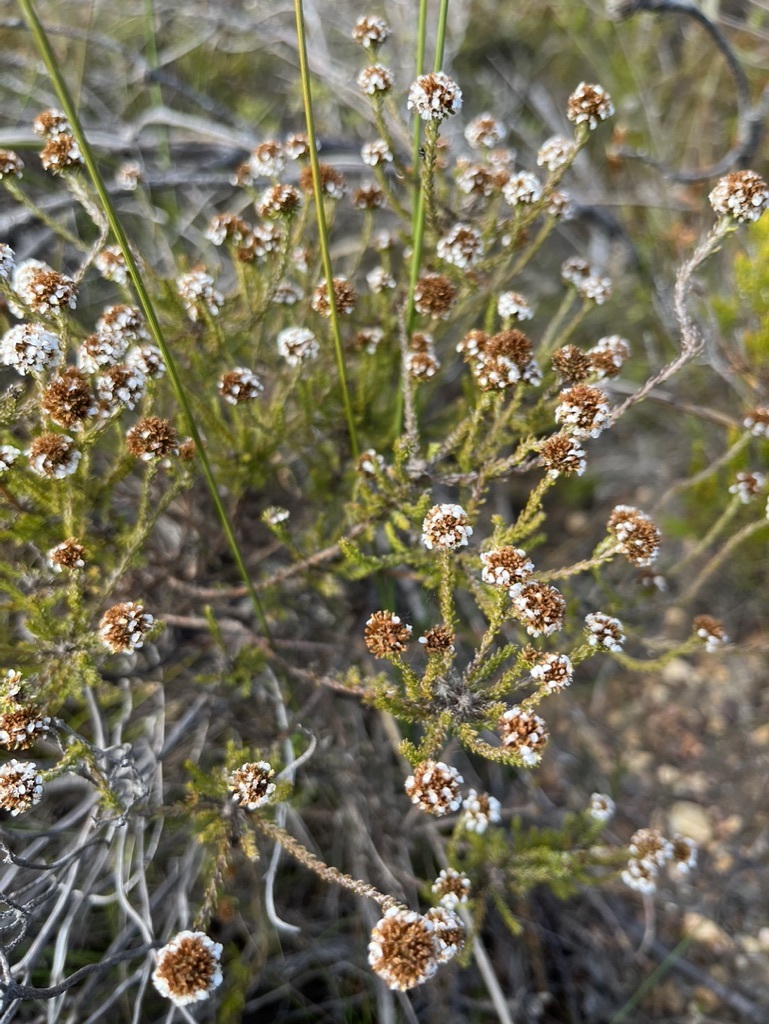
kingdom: Plantae
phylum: Tracheophyta
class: Magnoliopsida
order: Asterales
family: Asteraceae
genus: Disparago
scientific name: Disparago anomala
